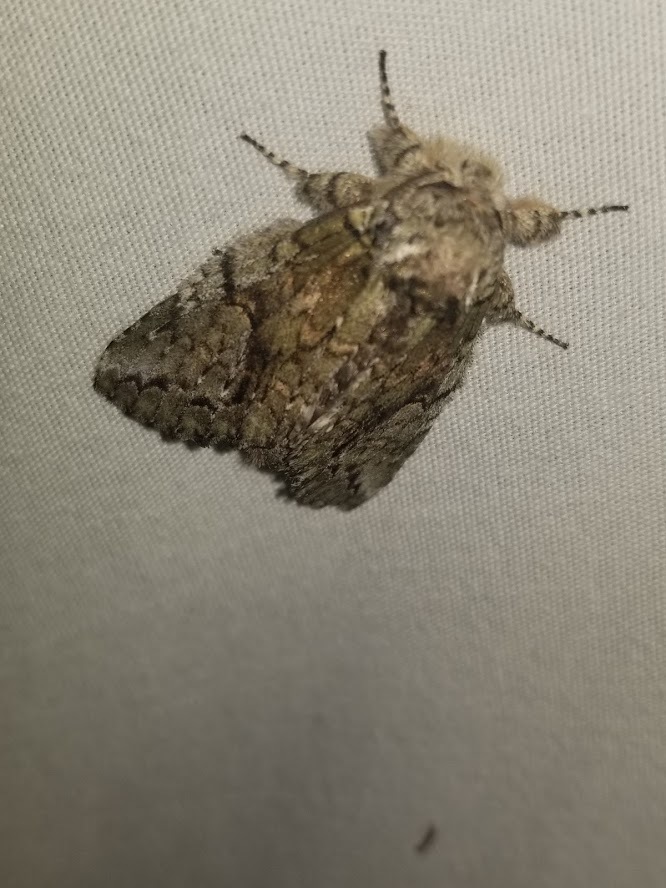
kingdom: Animalia
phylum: Arthropoda
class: Insecta
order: Lepidoptera
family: Notodontidae
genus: Heterocampa
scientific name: Heterocampa
